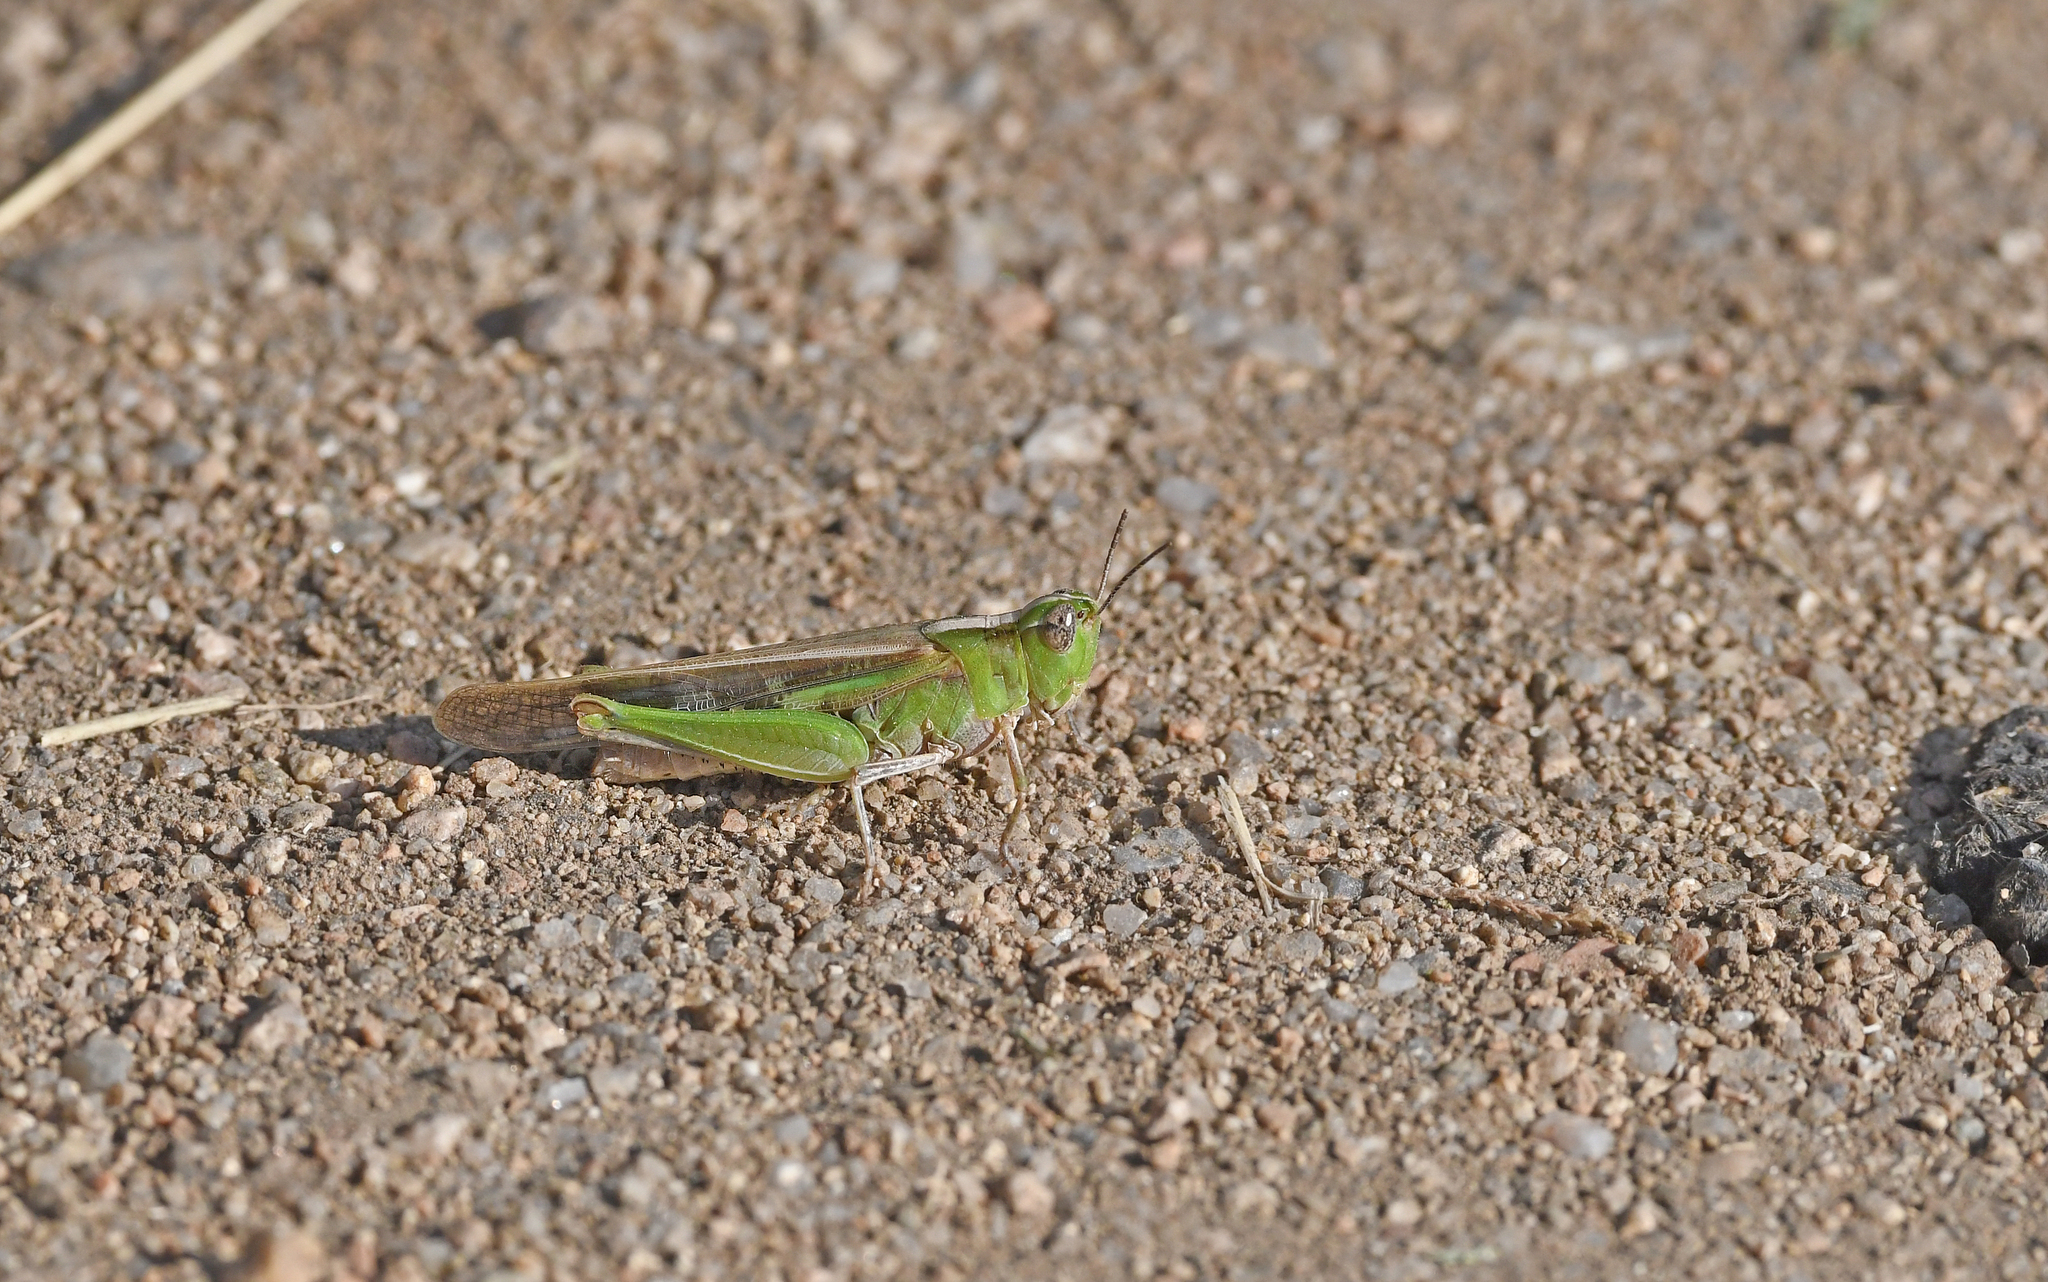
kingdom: Animalia
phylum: Arthropoda
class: Insecta
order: Orthoptera
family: Acrididae
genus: Aiolopus
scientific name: Aiolopus puissanti
